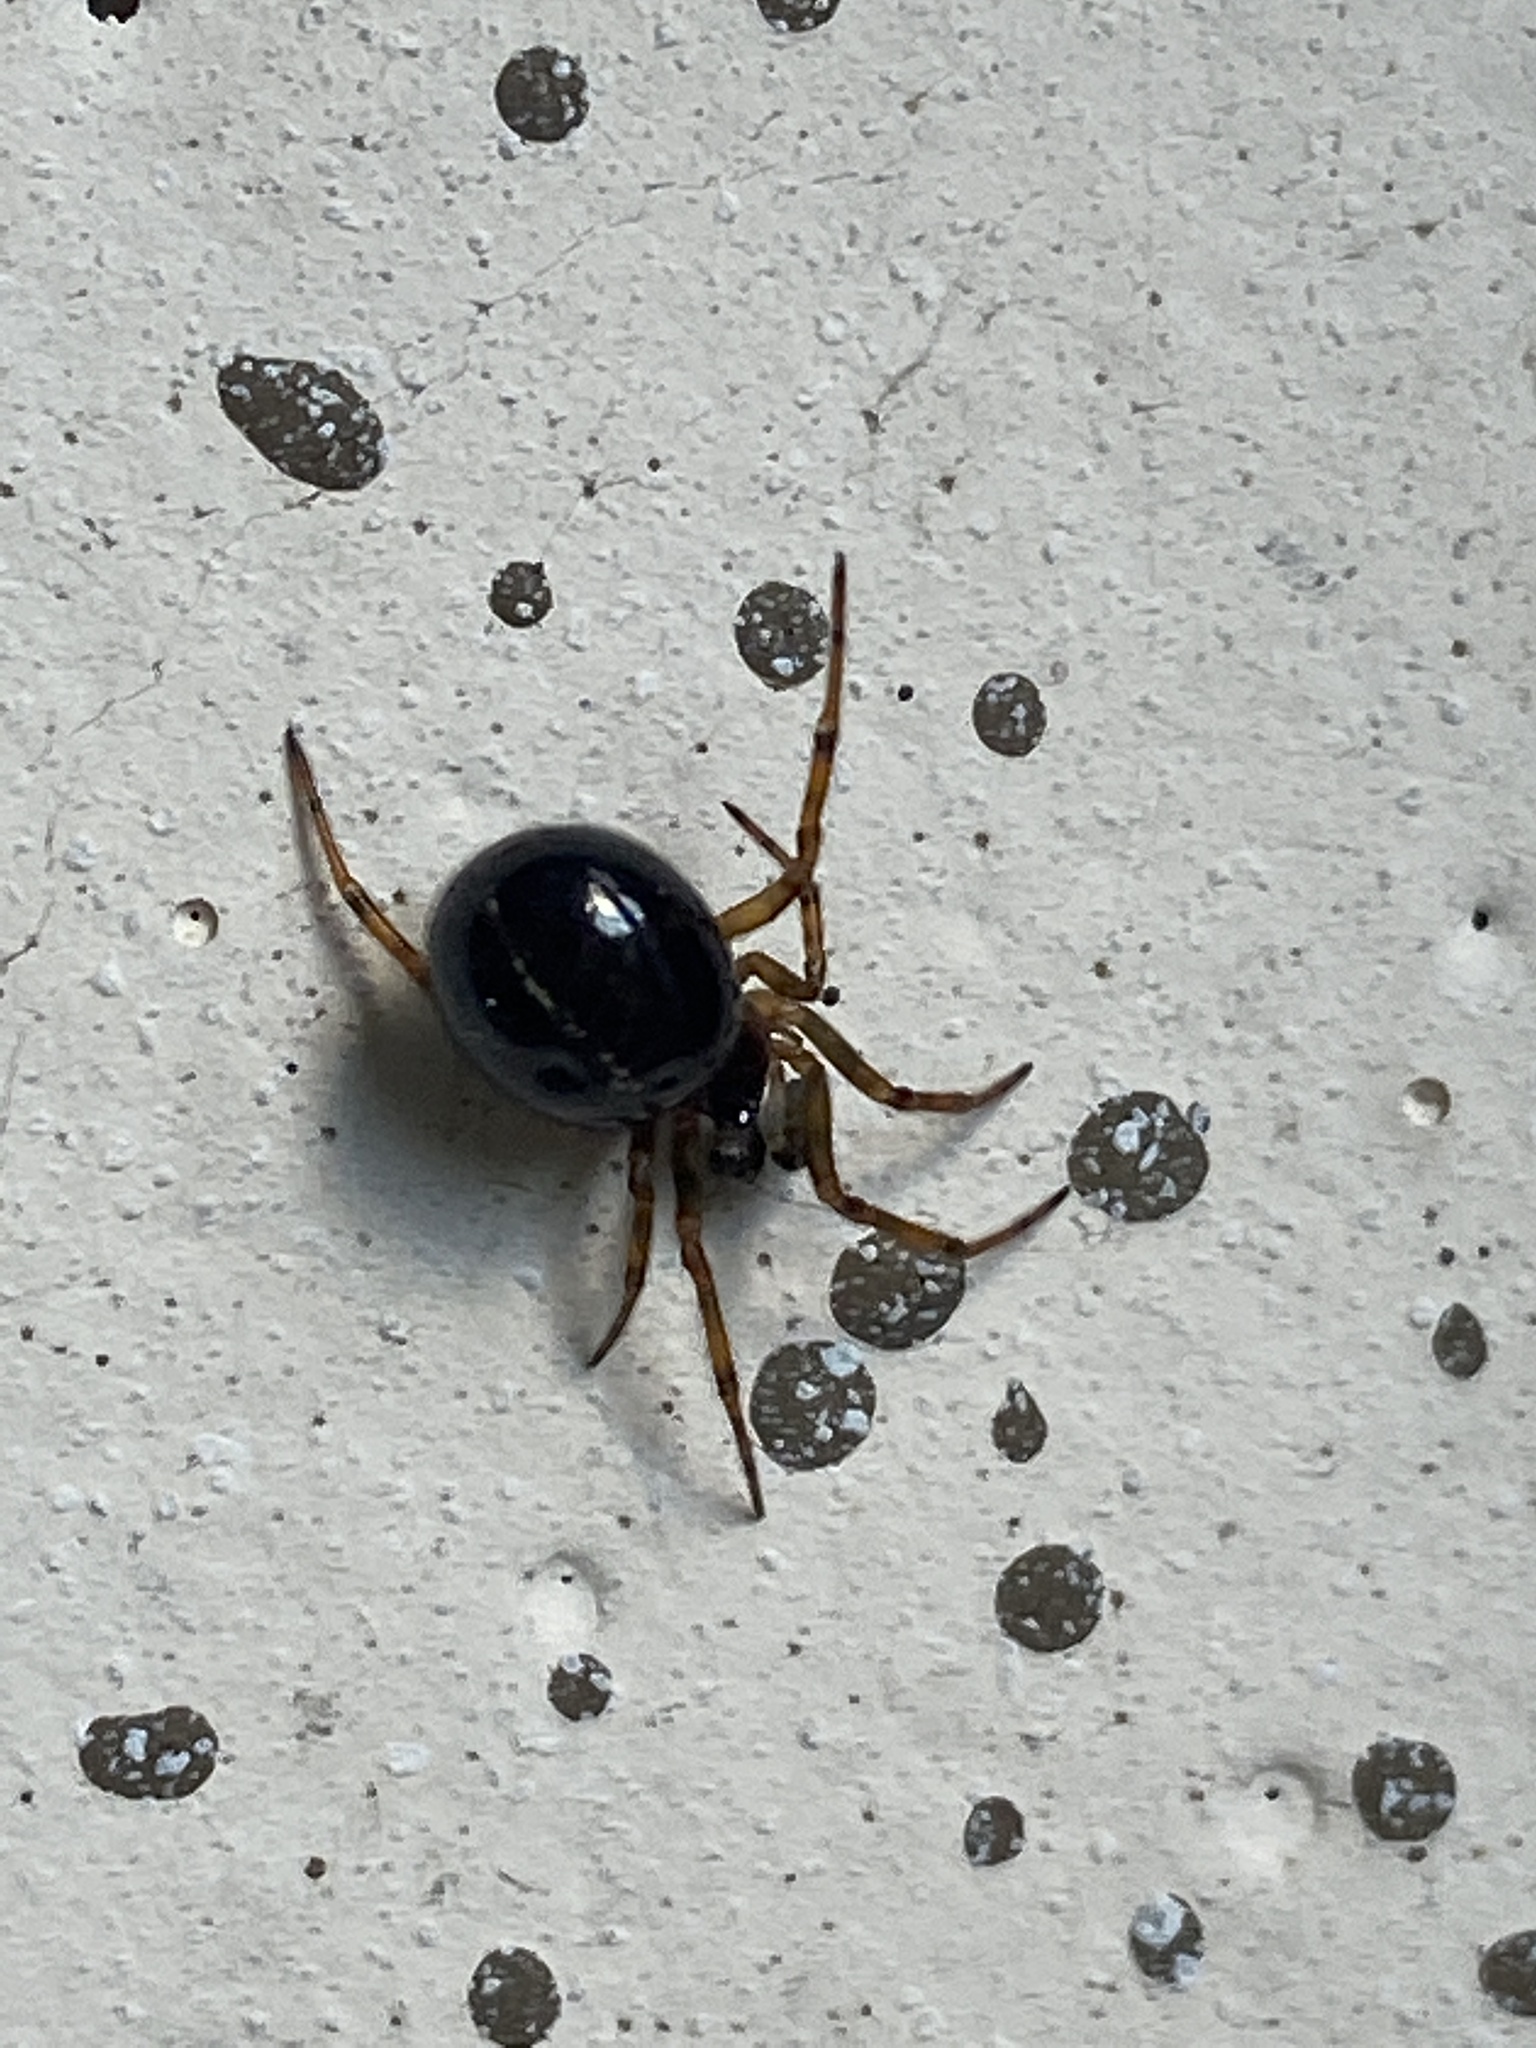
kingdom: Animalia
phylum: Arthropoda
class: Arachnida
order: Araneae
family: Theridiidae
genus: Steatoda
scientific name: Steatoda bipunctata
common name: False widow
